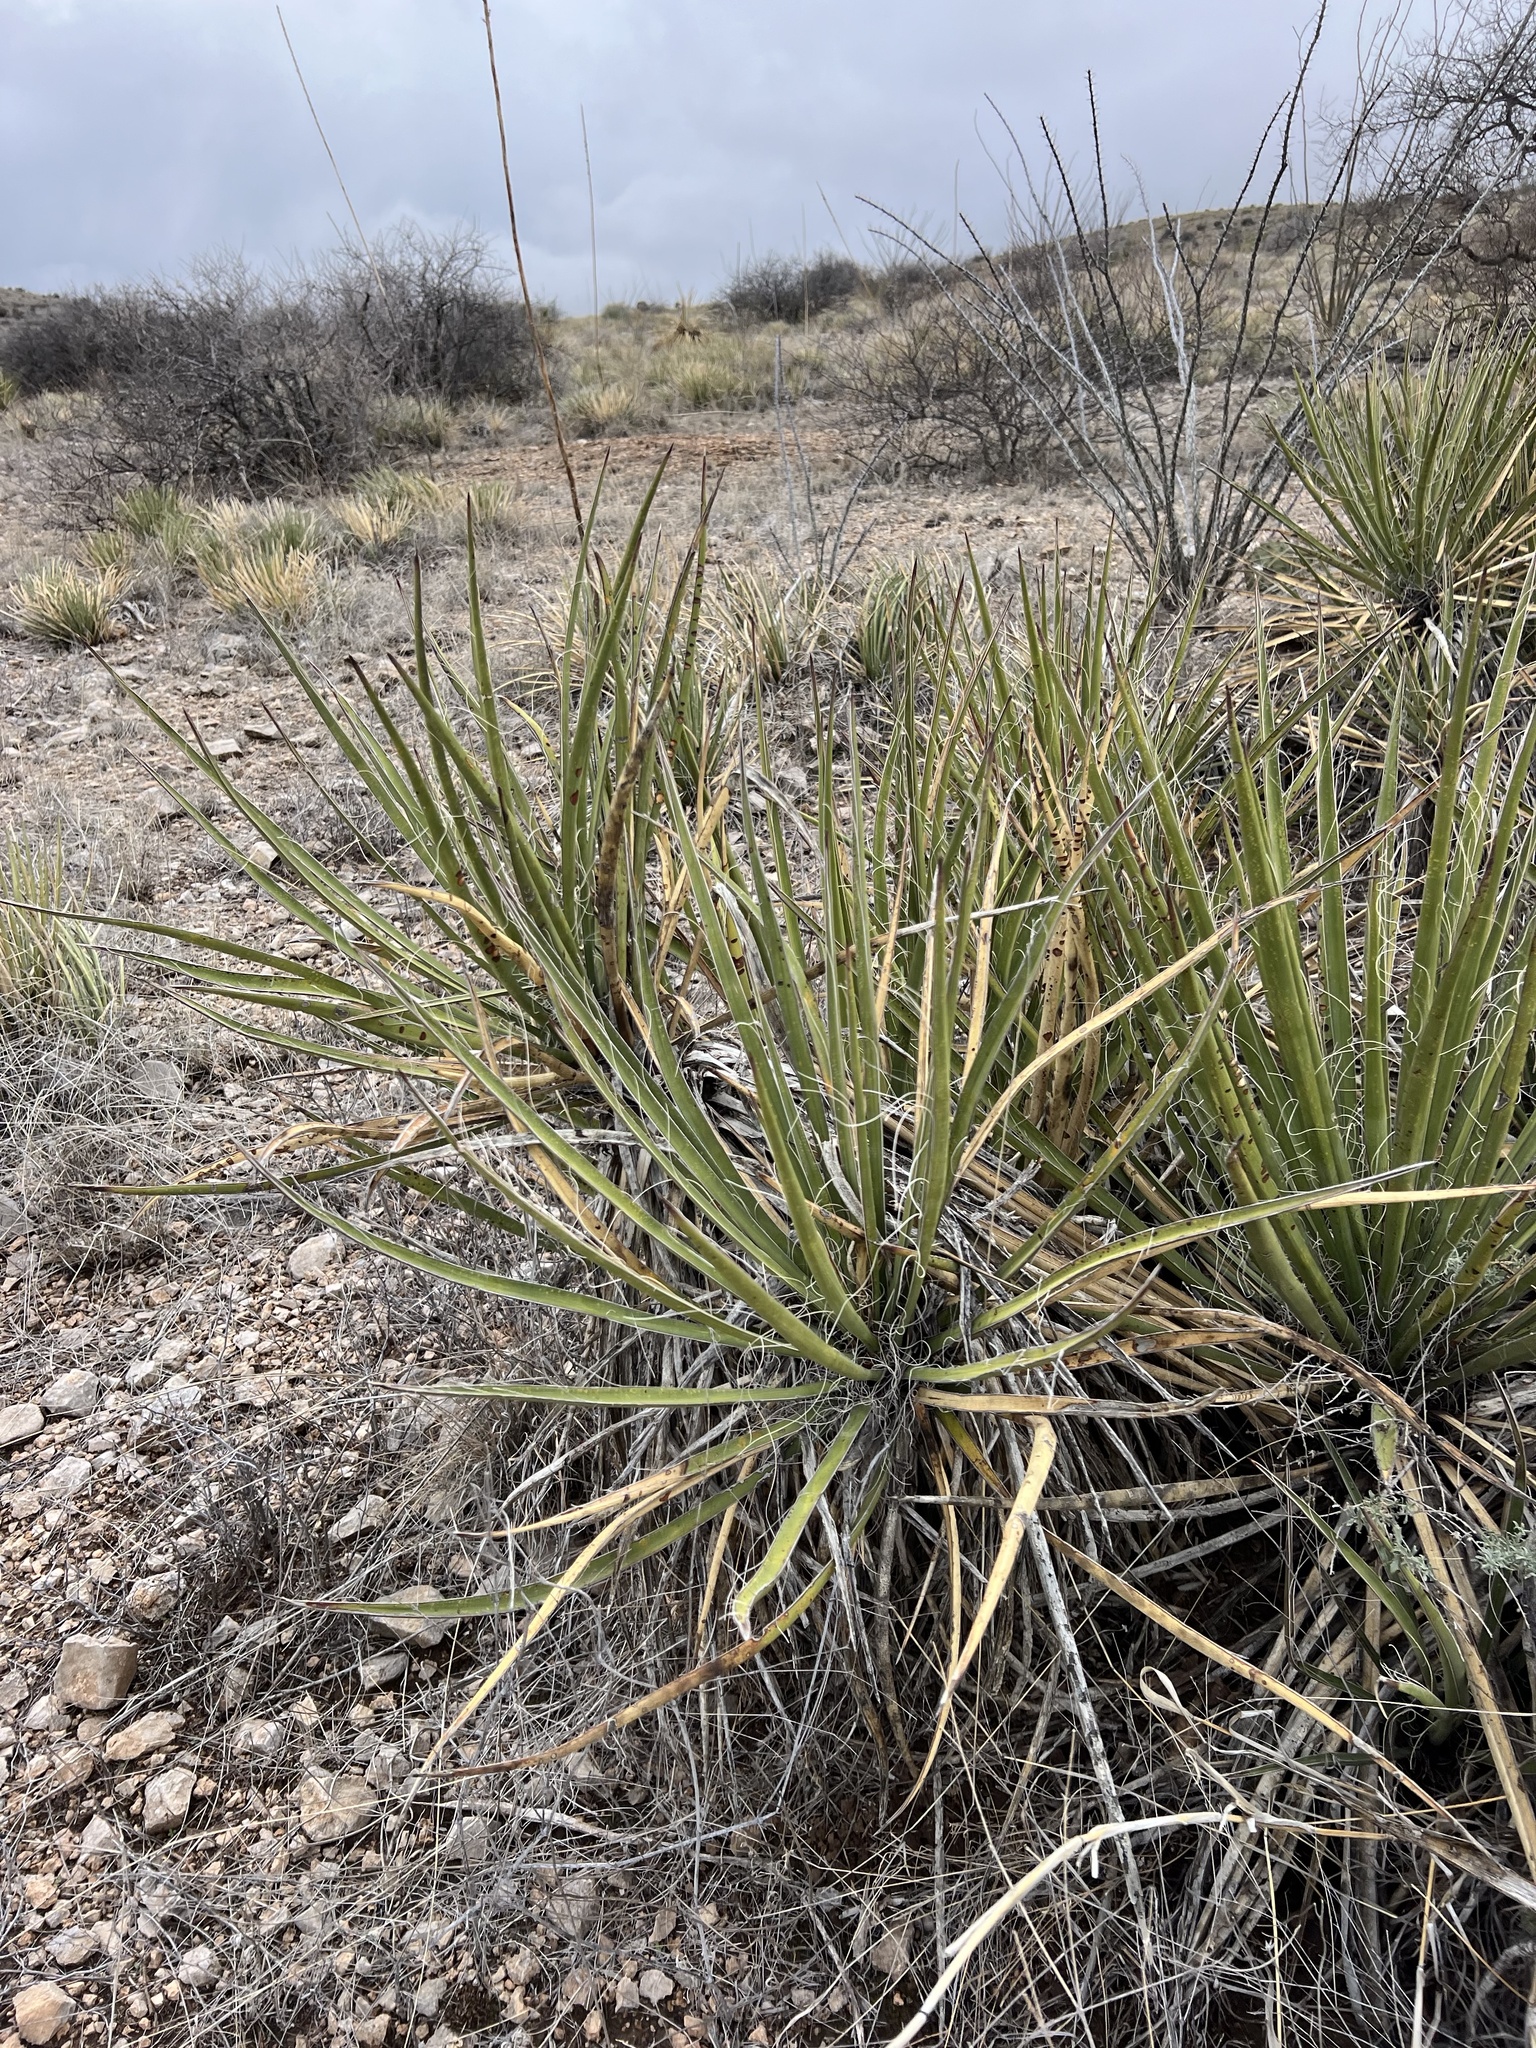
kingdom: Plantae
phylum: Tracheophyta
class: Liliopsida
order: Asparagales
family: Asparagaceae
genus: Yucca
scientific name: Yucca baccata
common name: Banana yucca
